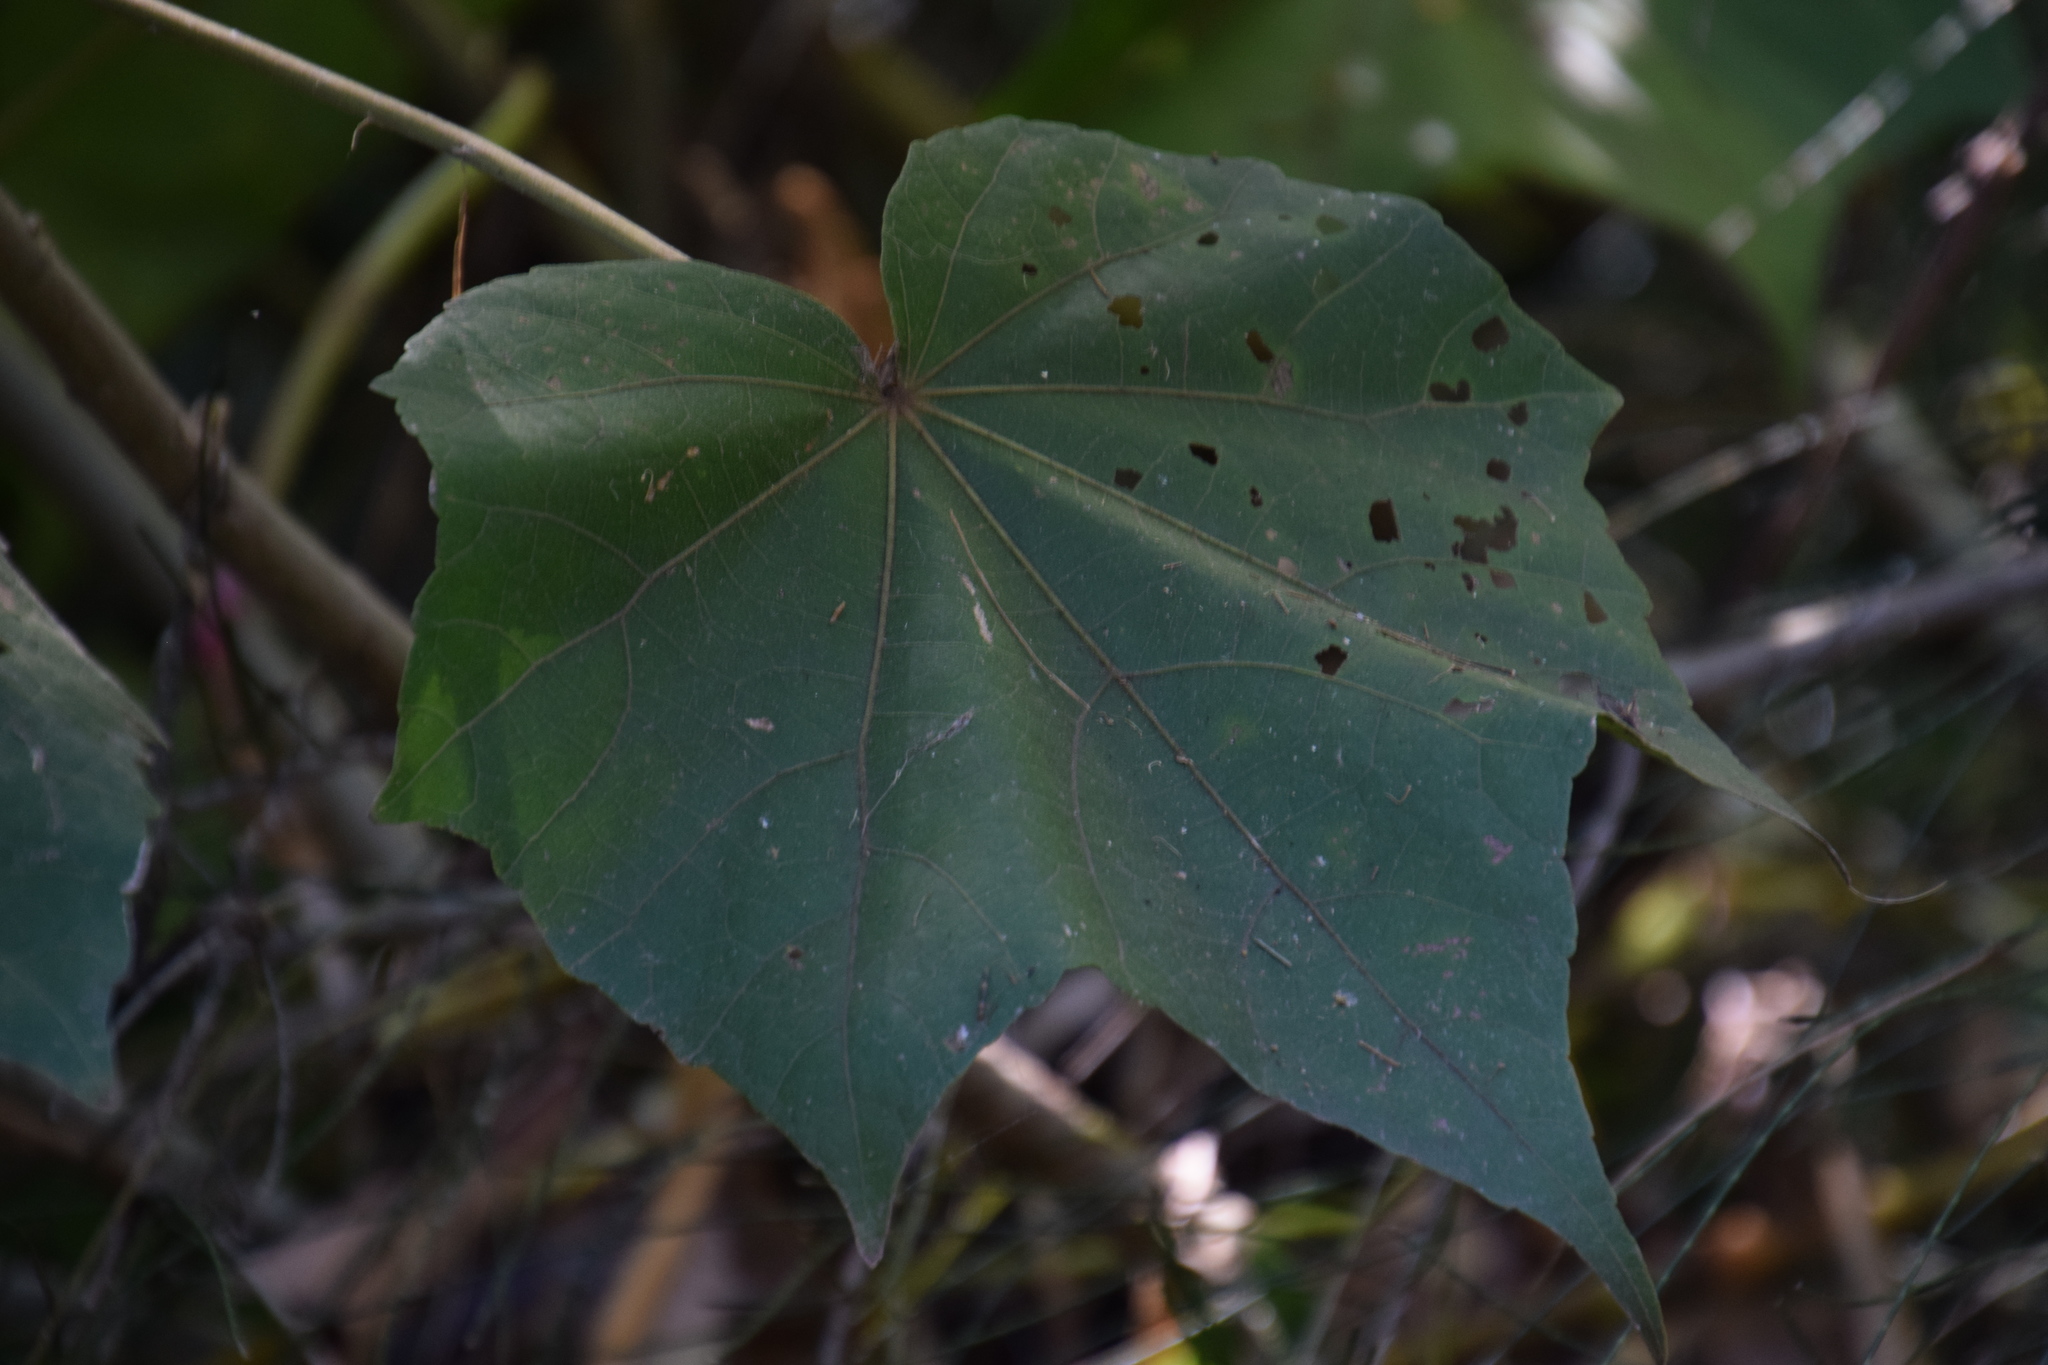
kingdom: Plantae
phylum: Tracheophyta
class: Magnoliopsida
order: Malvales
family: Malvaceae
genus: Hibiscus
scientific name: Hibiscus mutabilis
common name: Dixie rosemallow
